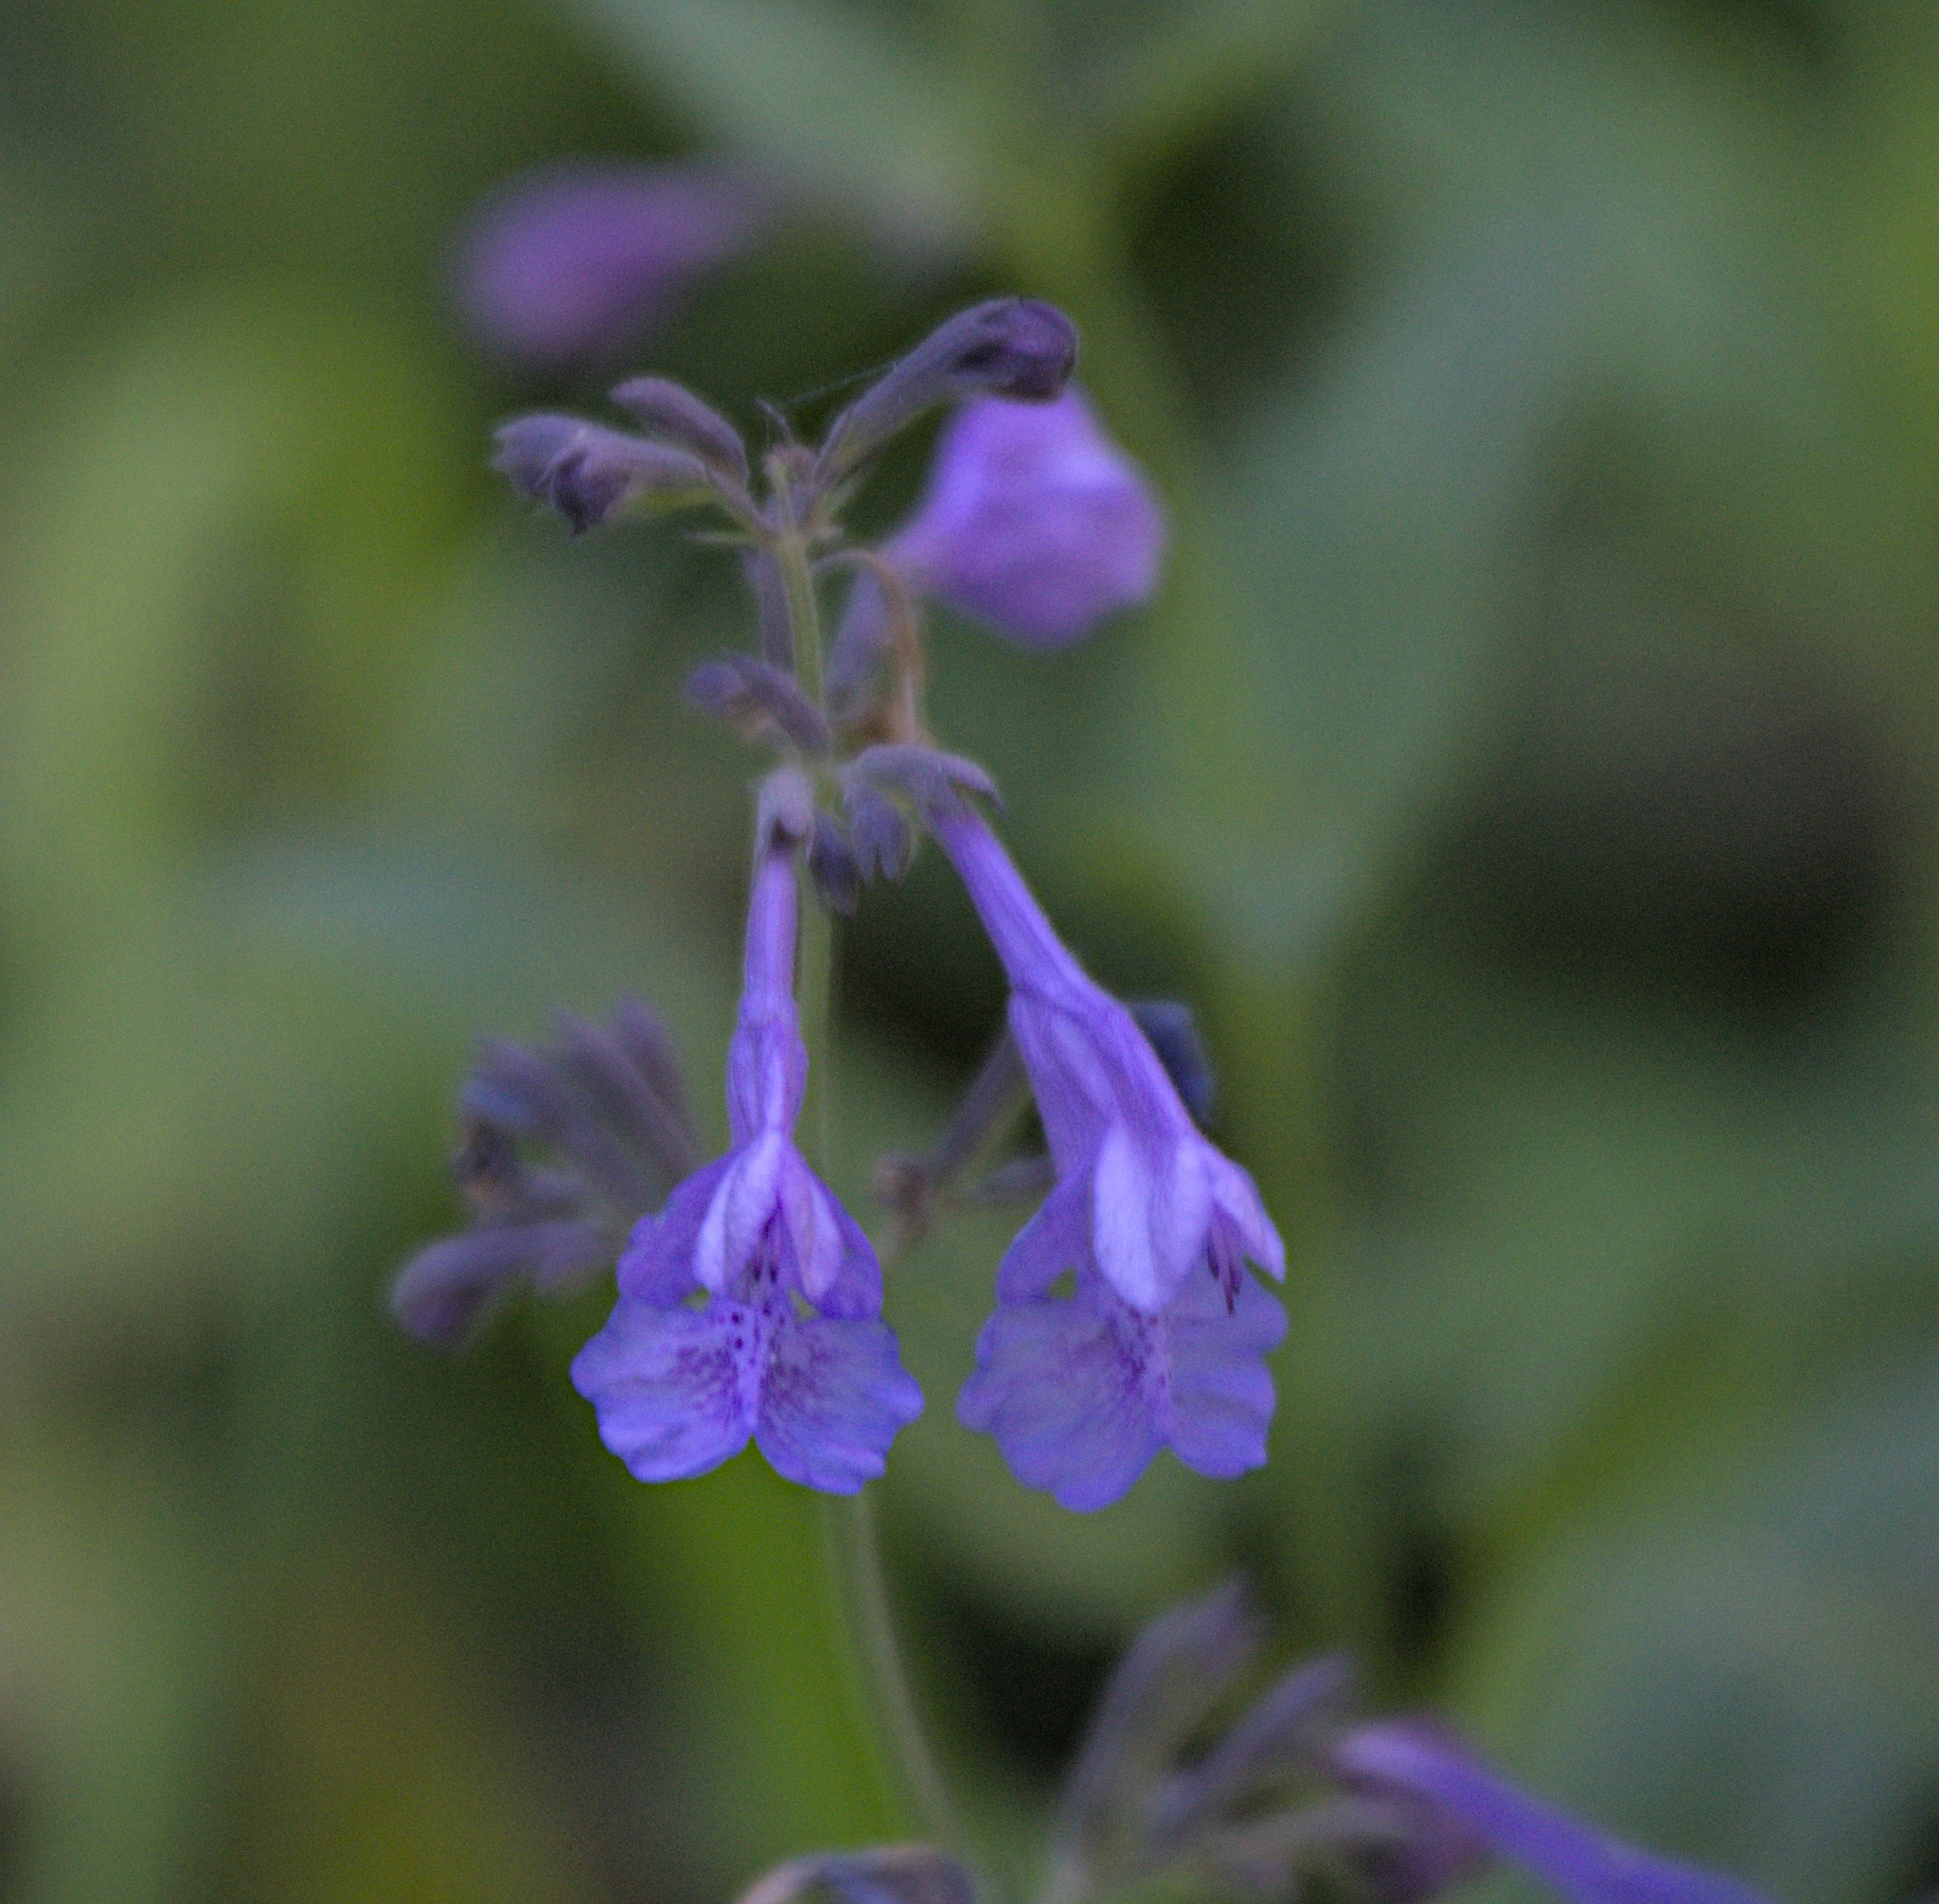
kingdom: Plantae
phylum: Tracheophyta
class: Magnoliopsida
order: Lamiales
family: Lamiaceae
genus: Nepeta
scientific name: Nepeta sibirica
